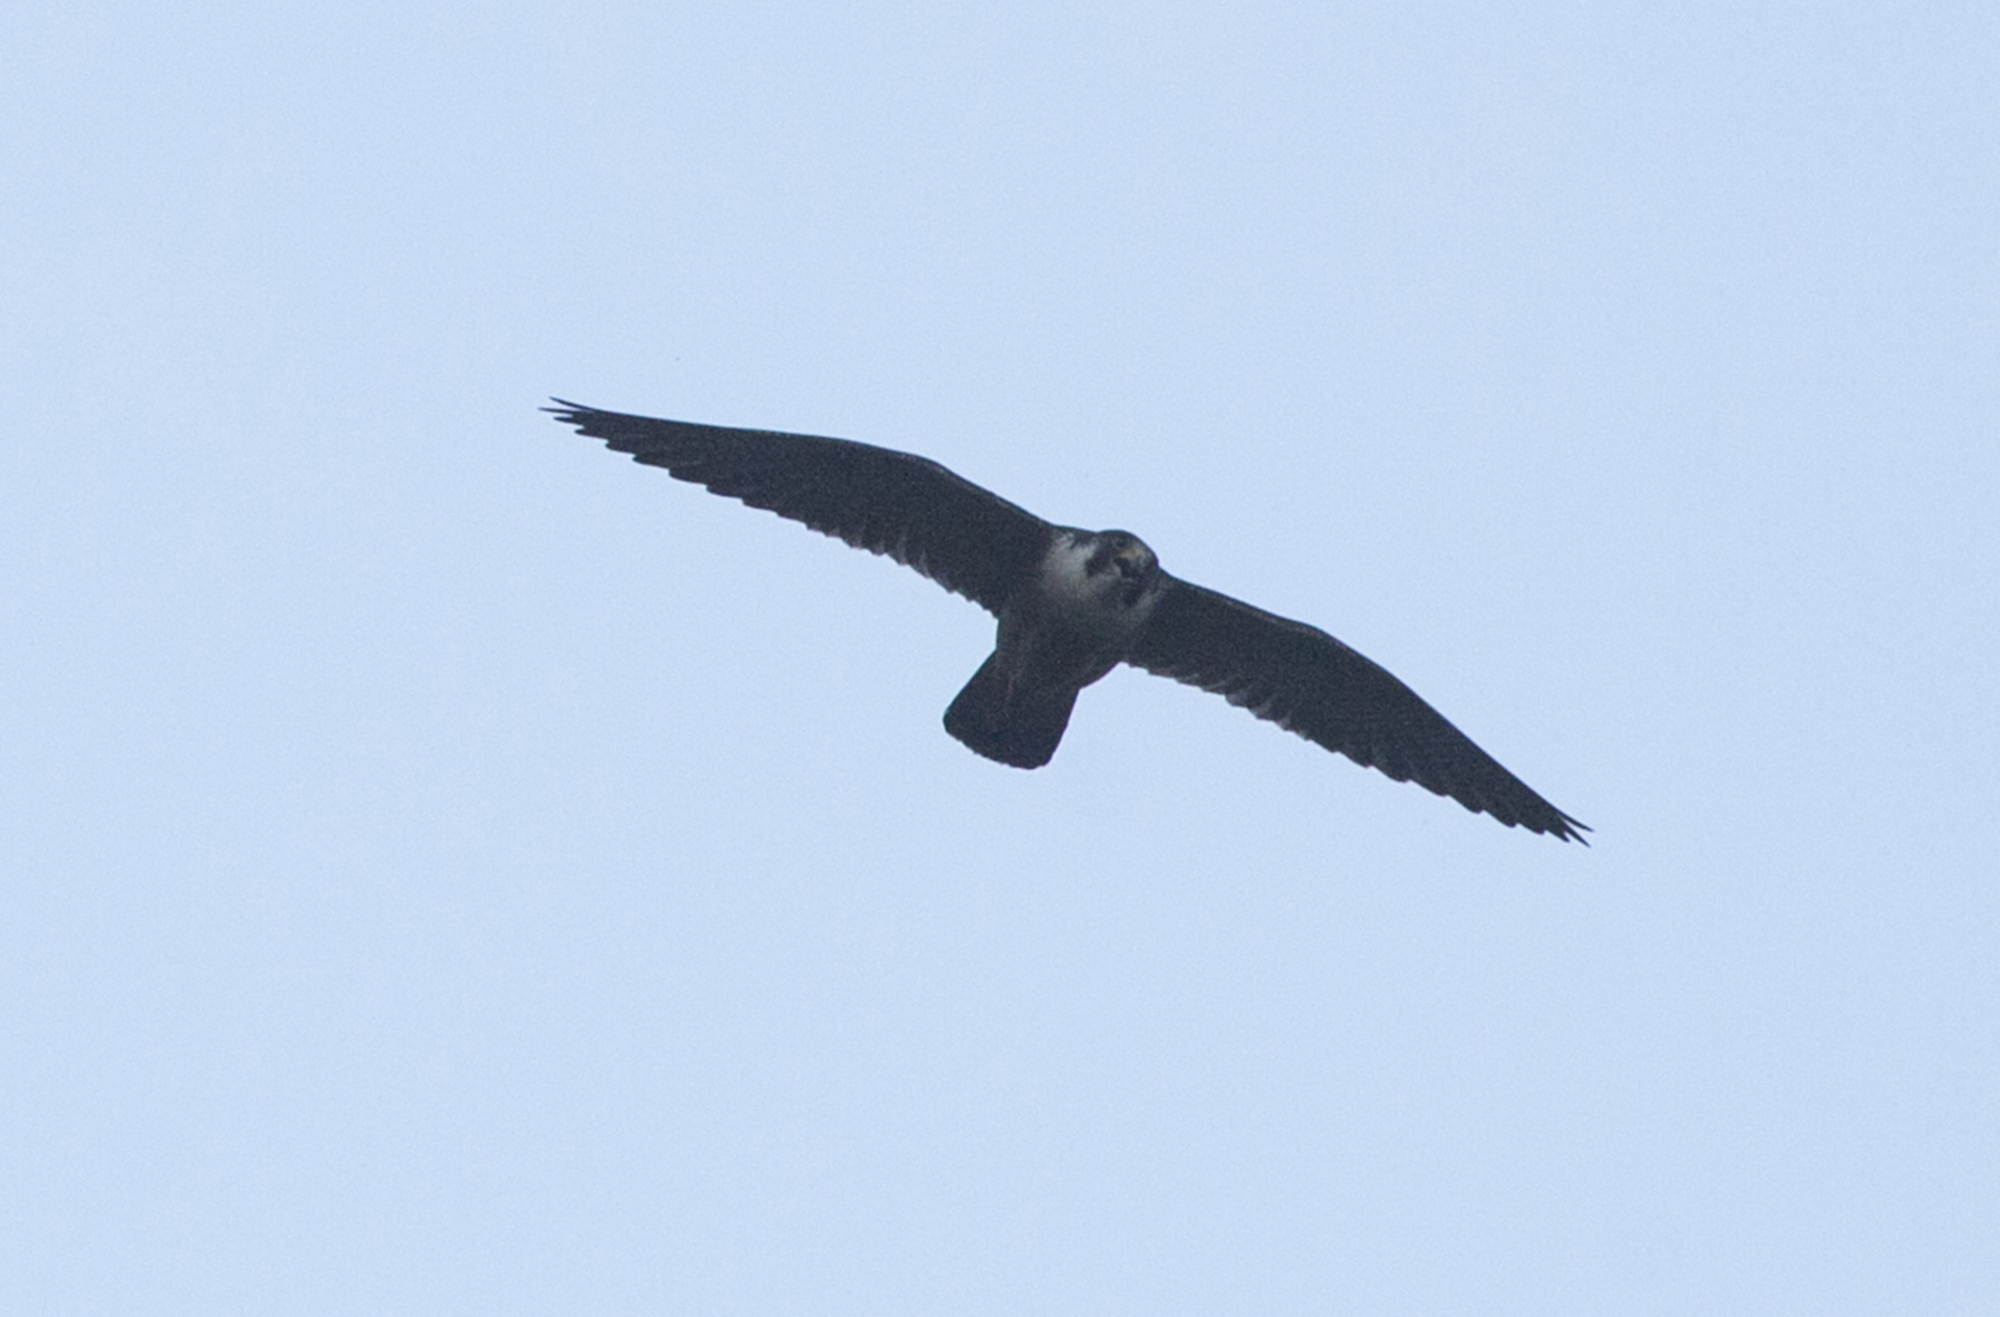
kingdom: Animalia
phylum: Chordata
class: Aves
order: Falconiformes
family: Falconidae
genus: Falco
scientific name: Falco peregrinus
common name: Peregrine falcon
